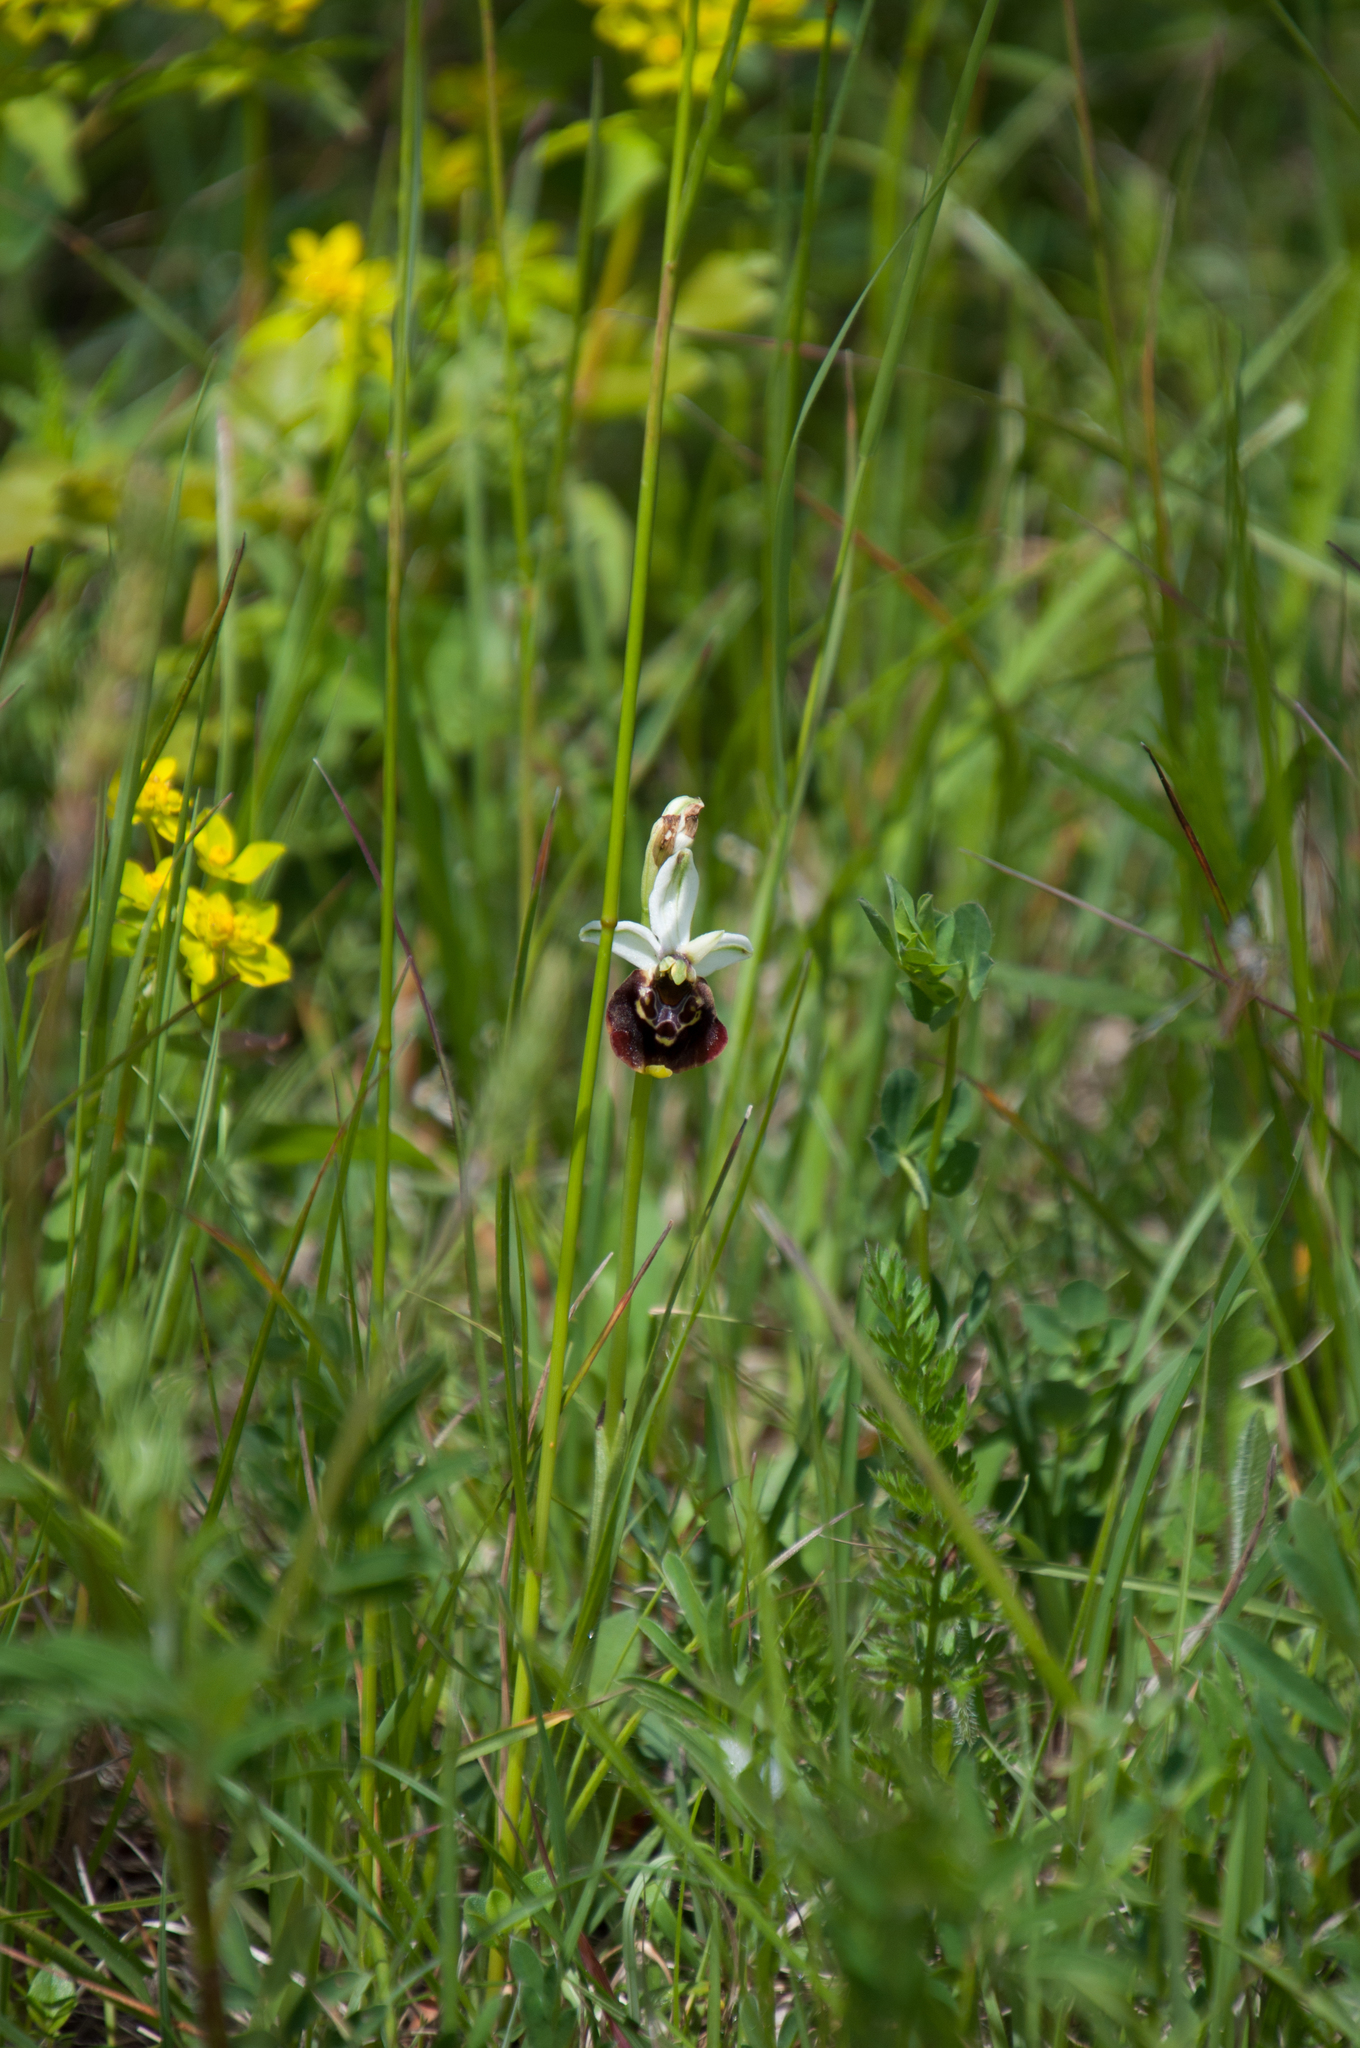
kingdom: Plantae
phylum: Tracheophyta
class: Liliopsida
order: Asparagales
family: Orchidaceae
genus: Ophrys
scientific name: Ophrys holosericea
